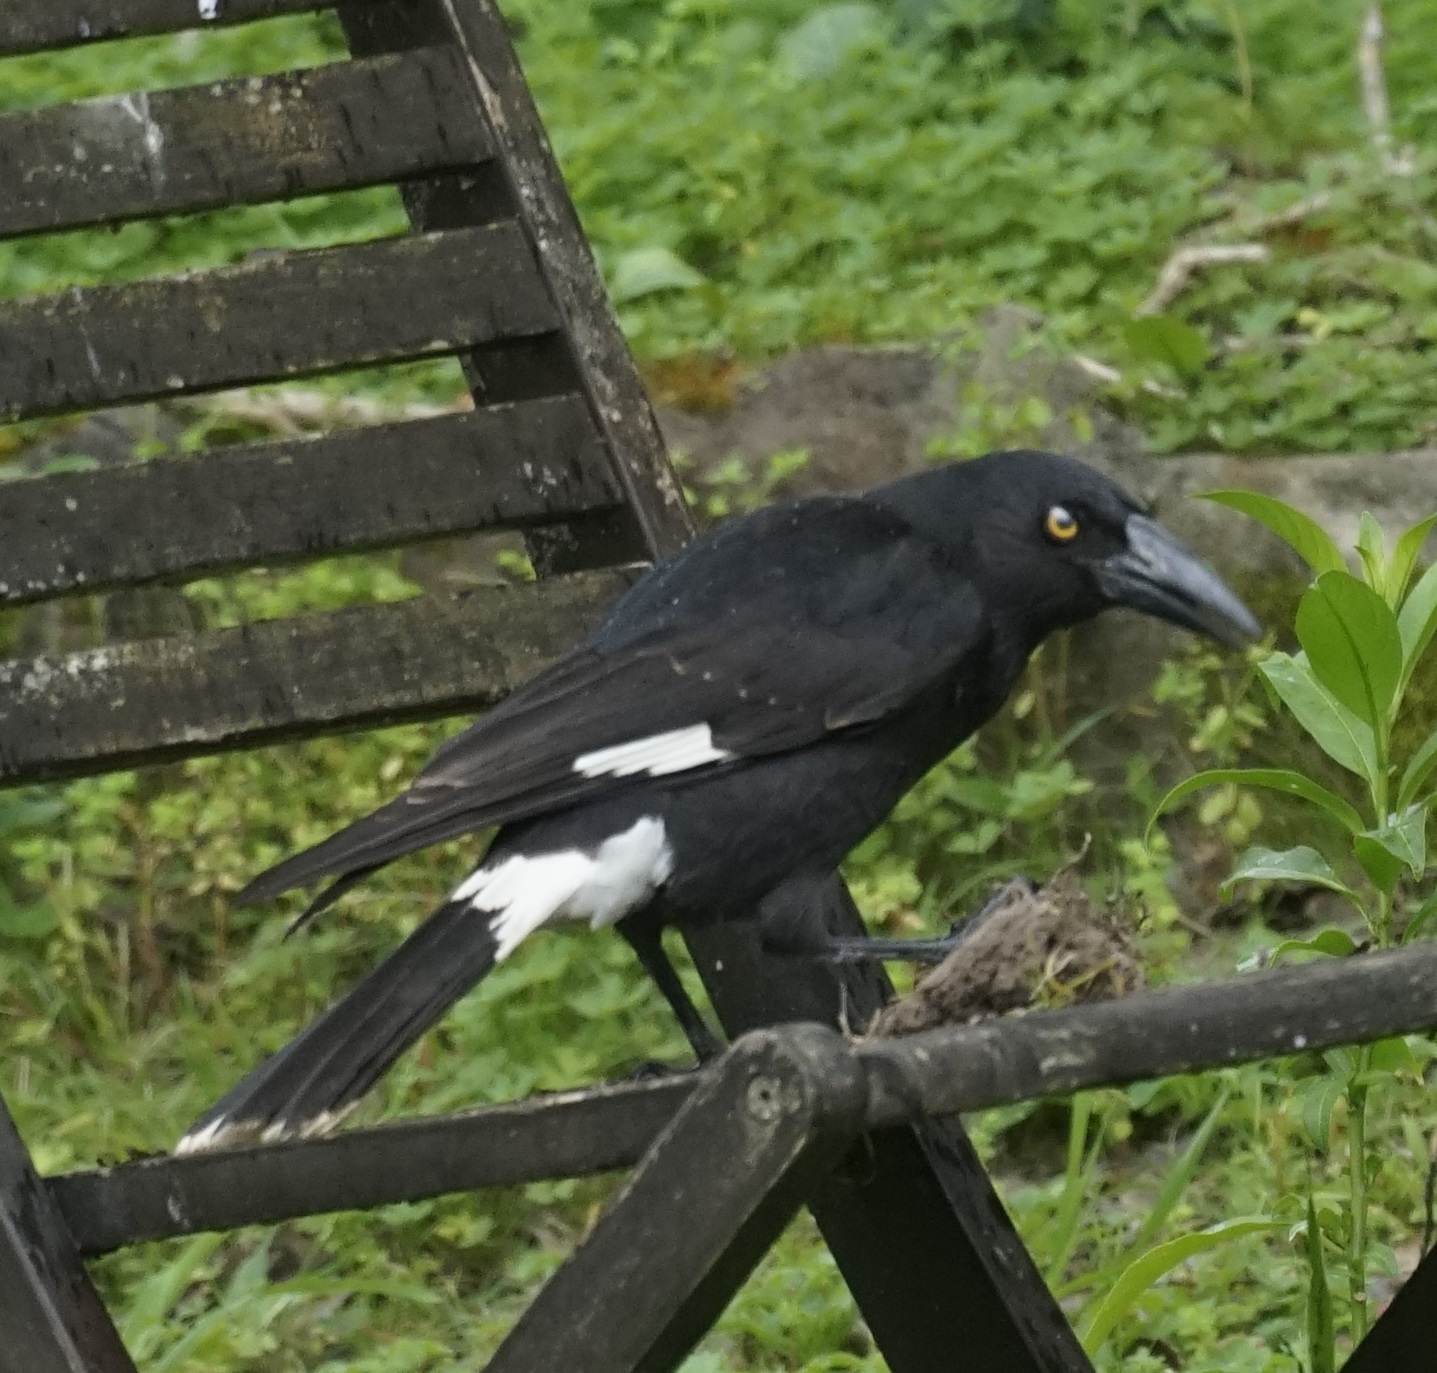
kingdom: Animalia
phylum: Chordata
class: Aves
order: Passeriformes
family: Cracticidae
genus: Strepera
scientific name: Strepera graculina
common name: Pied currawong
